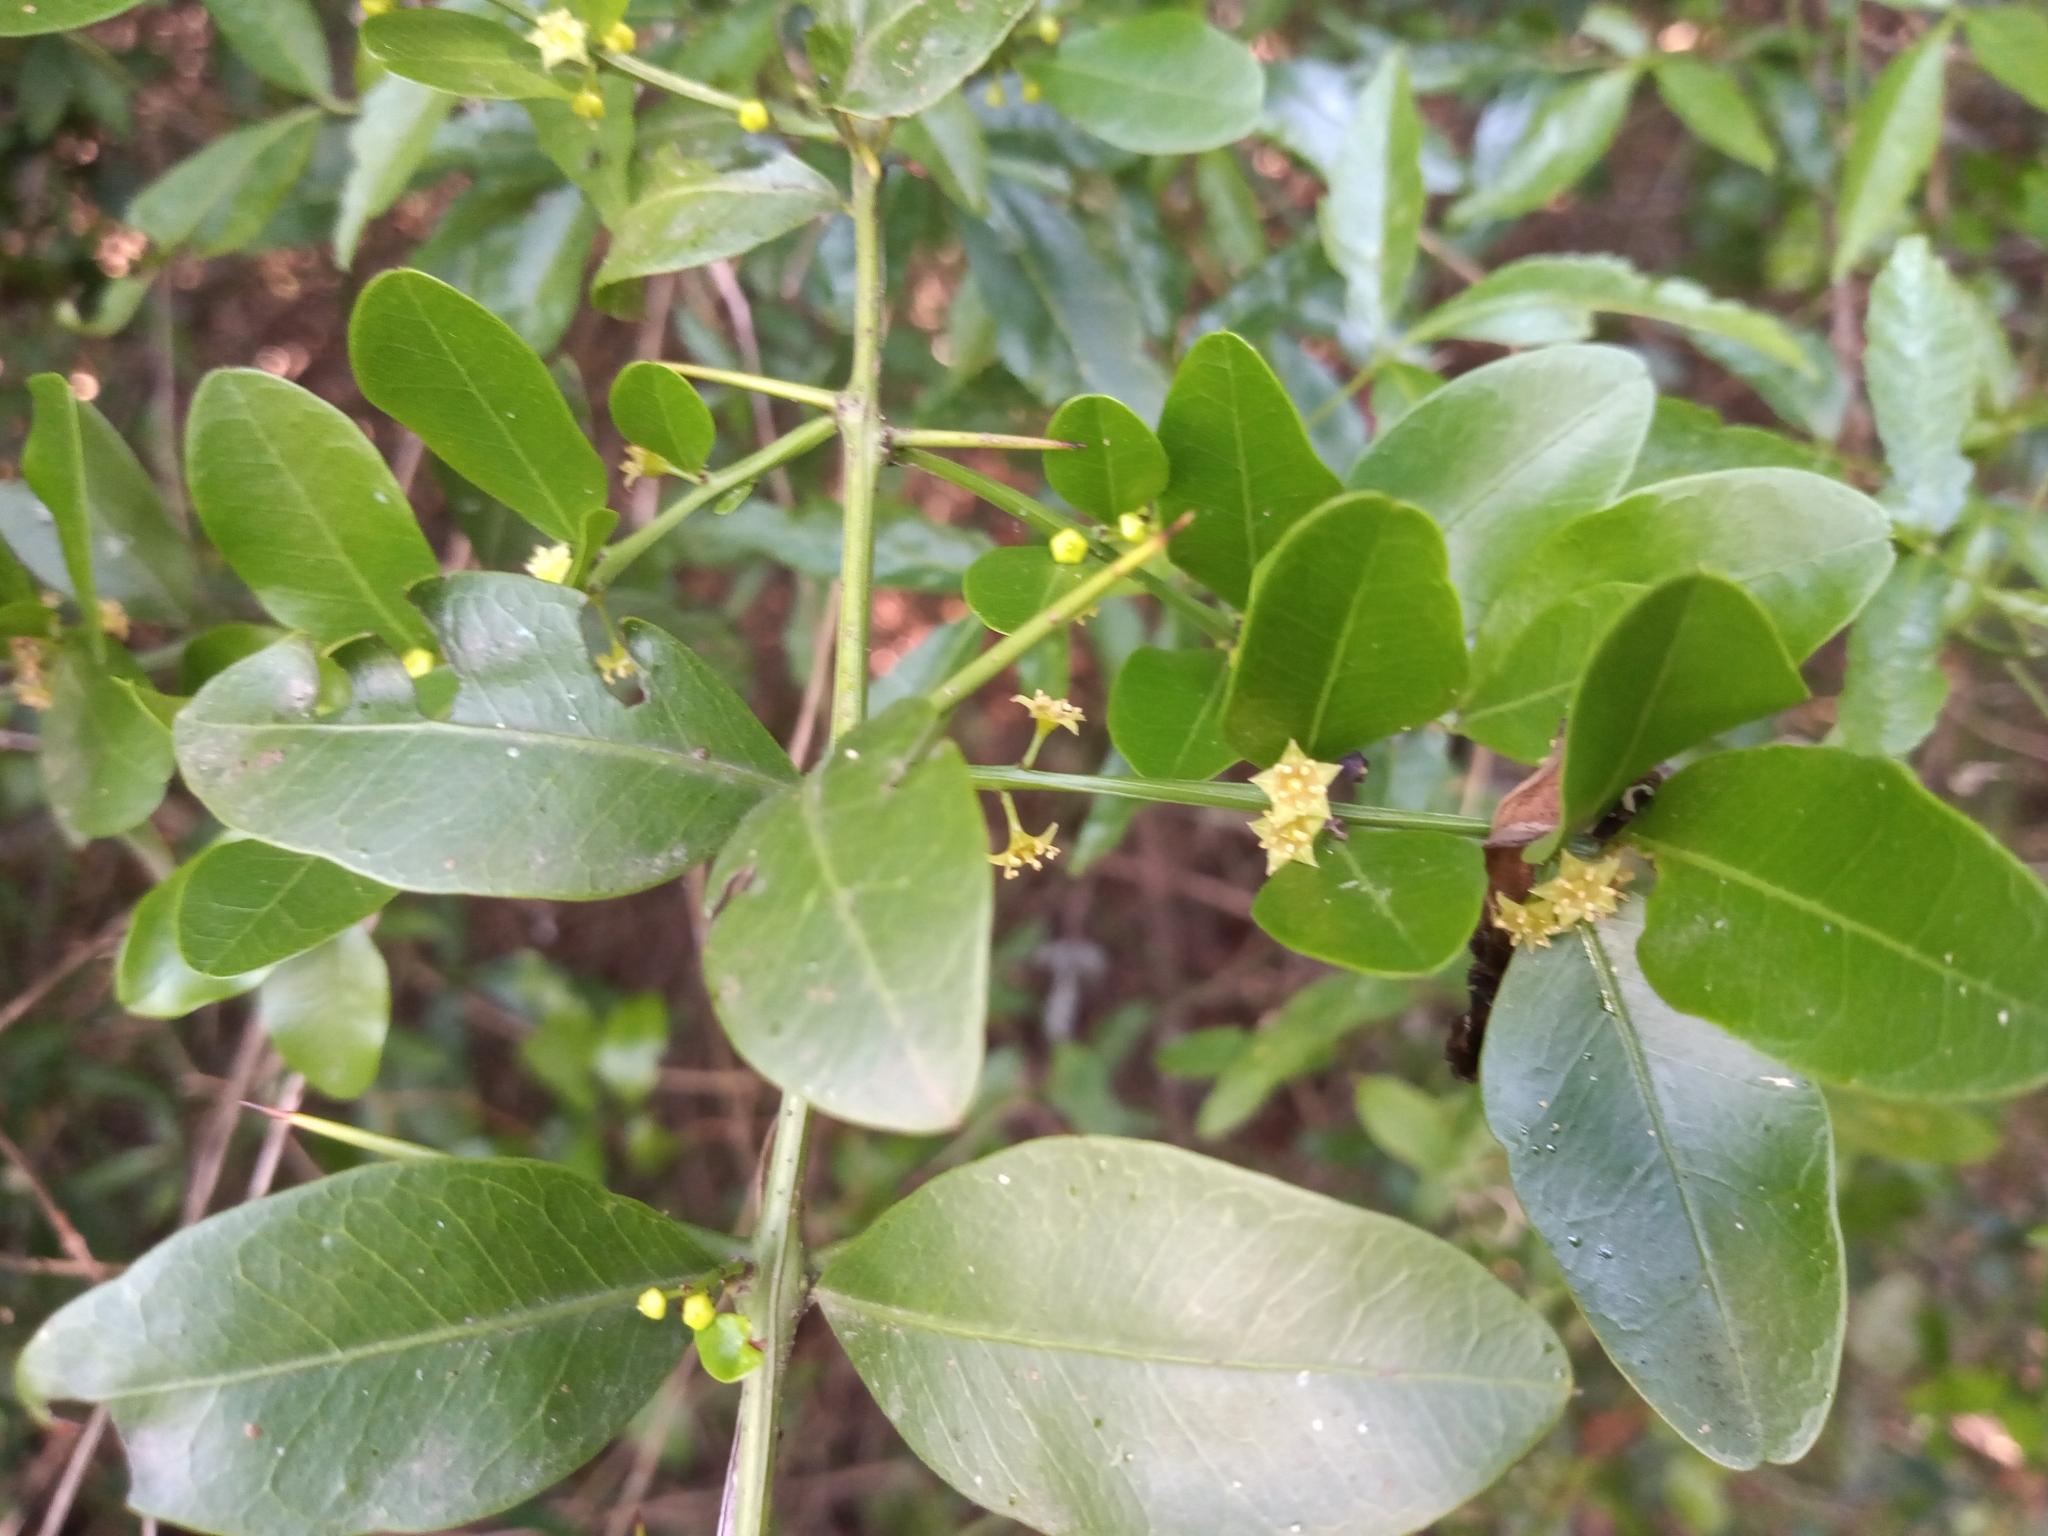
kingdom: Plantae
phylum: Tracheophyta
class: Magnoliopsida
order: Rosales
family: Rhamnaceae
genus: Scutia
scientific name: Scutia buxifolia
